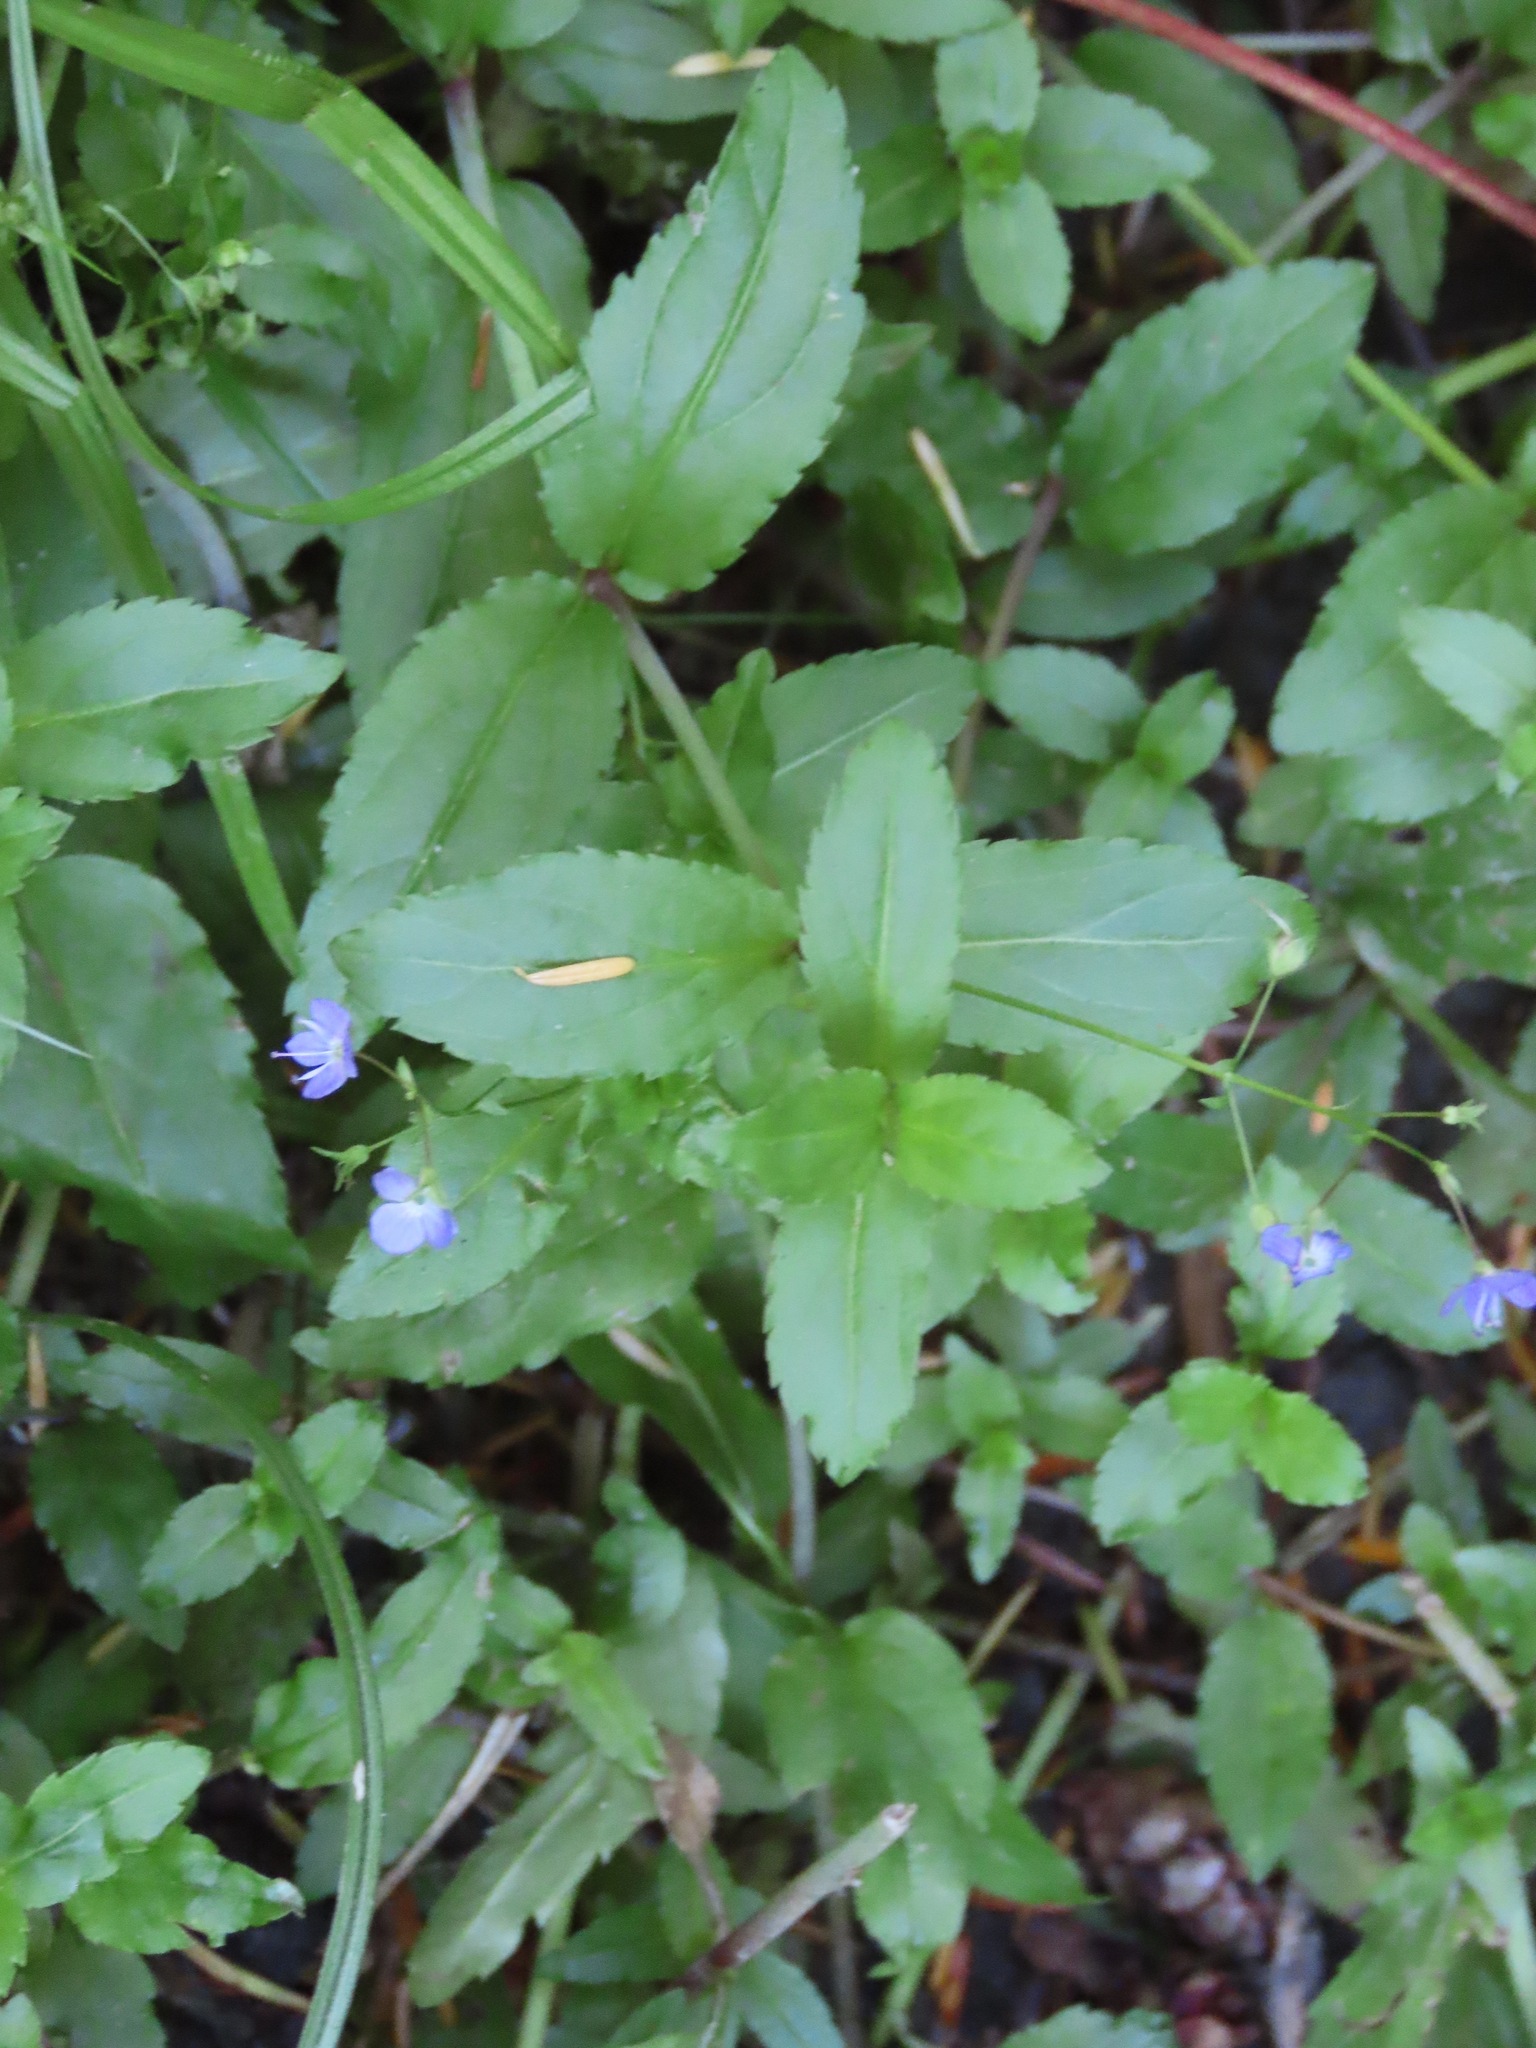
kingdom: Plantae
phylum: Tracheophyta
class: Magnoliopsida
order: Lamiales
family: Plantaginaceae
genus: Veronica
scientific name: Veronica americana
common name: American brooklime
